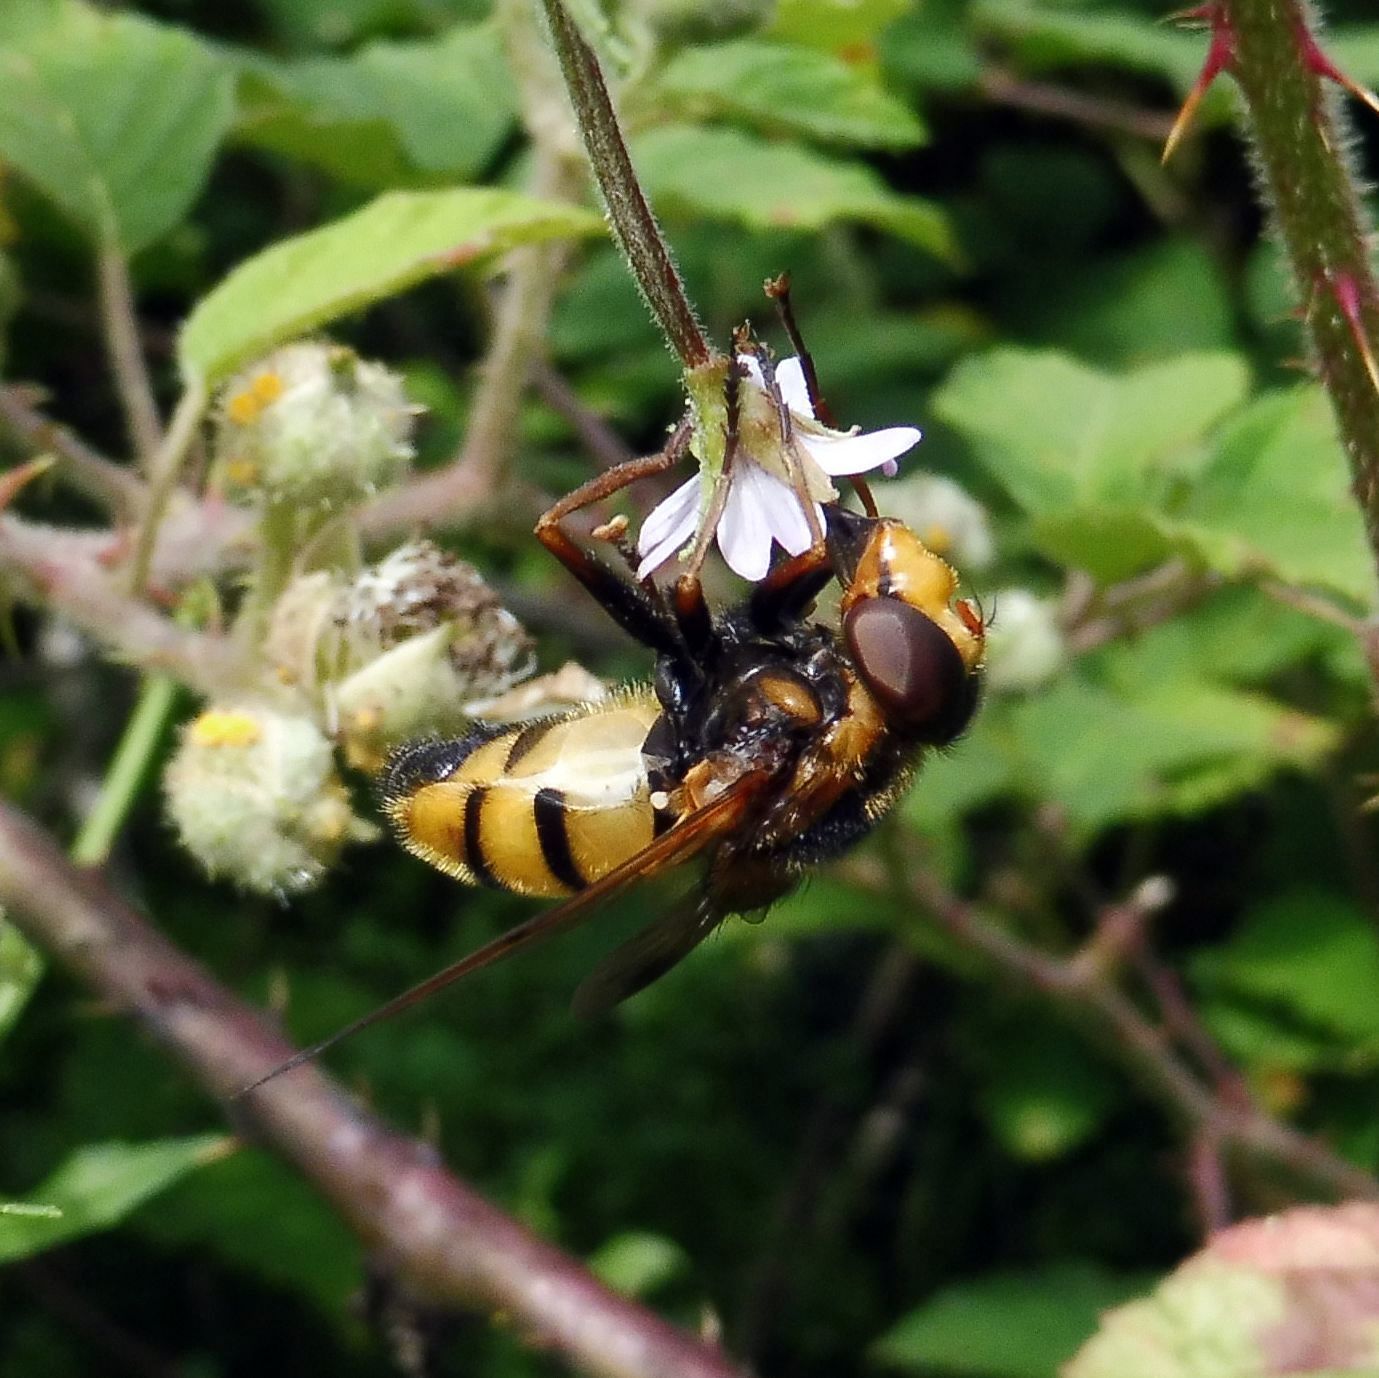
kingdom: Animalia
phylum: Arthropoda
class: Insecta
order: Diptera
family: Syrphidae
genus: Volucella
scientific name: Volucella inanis
